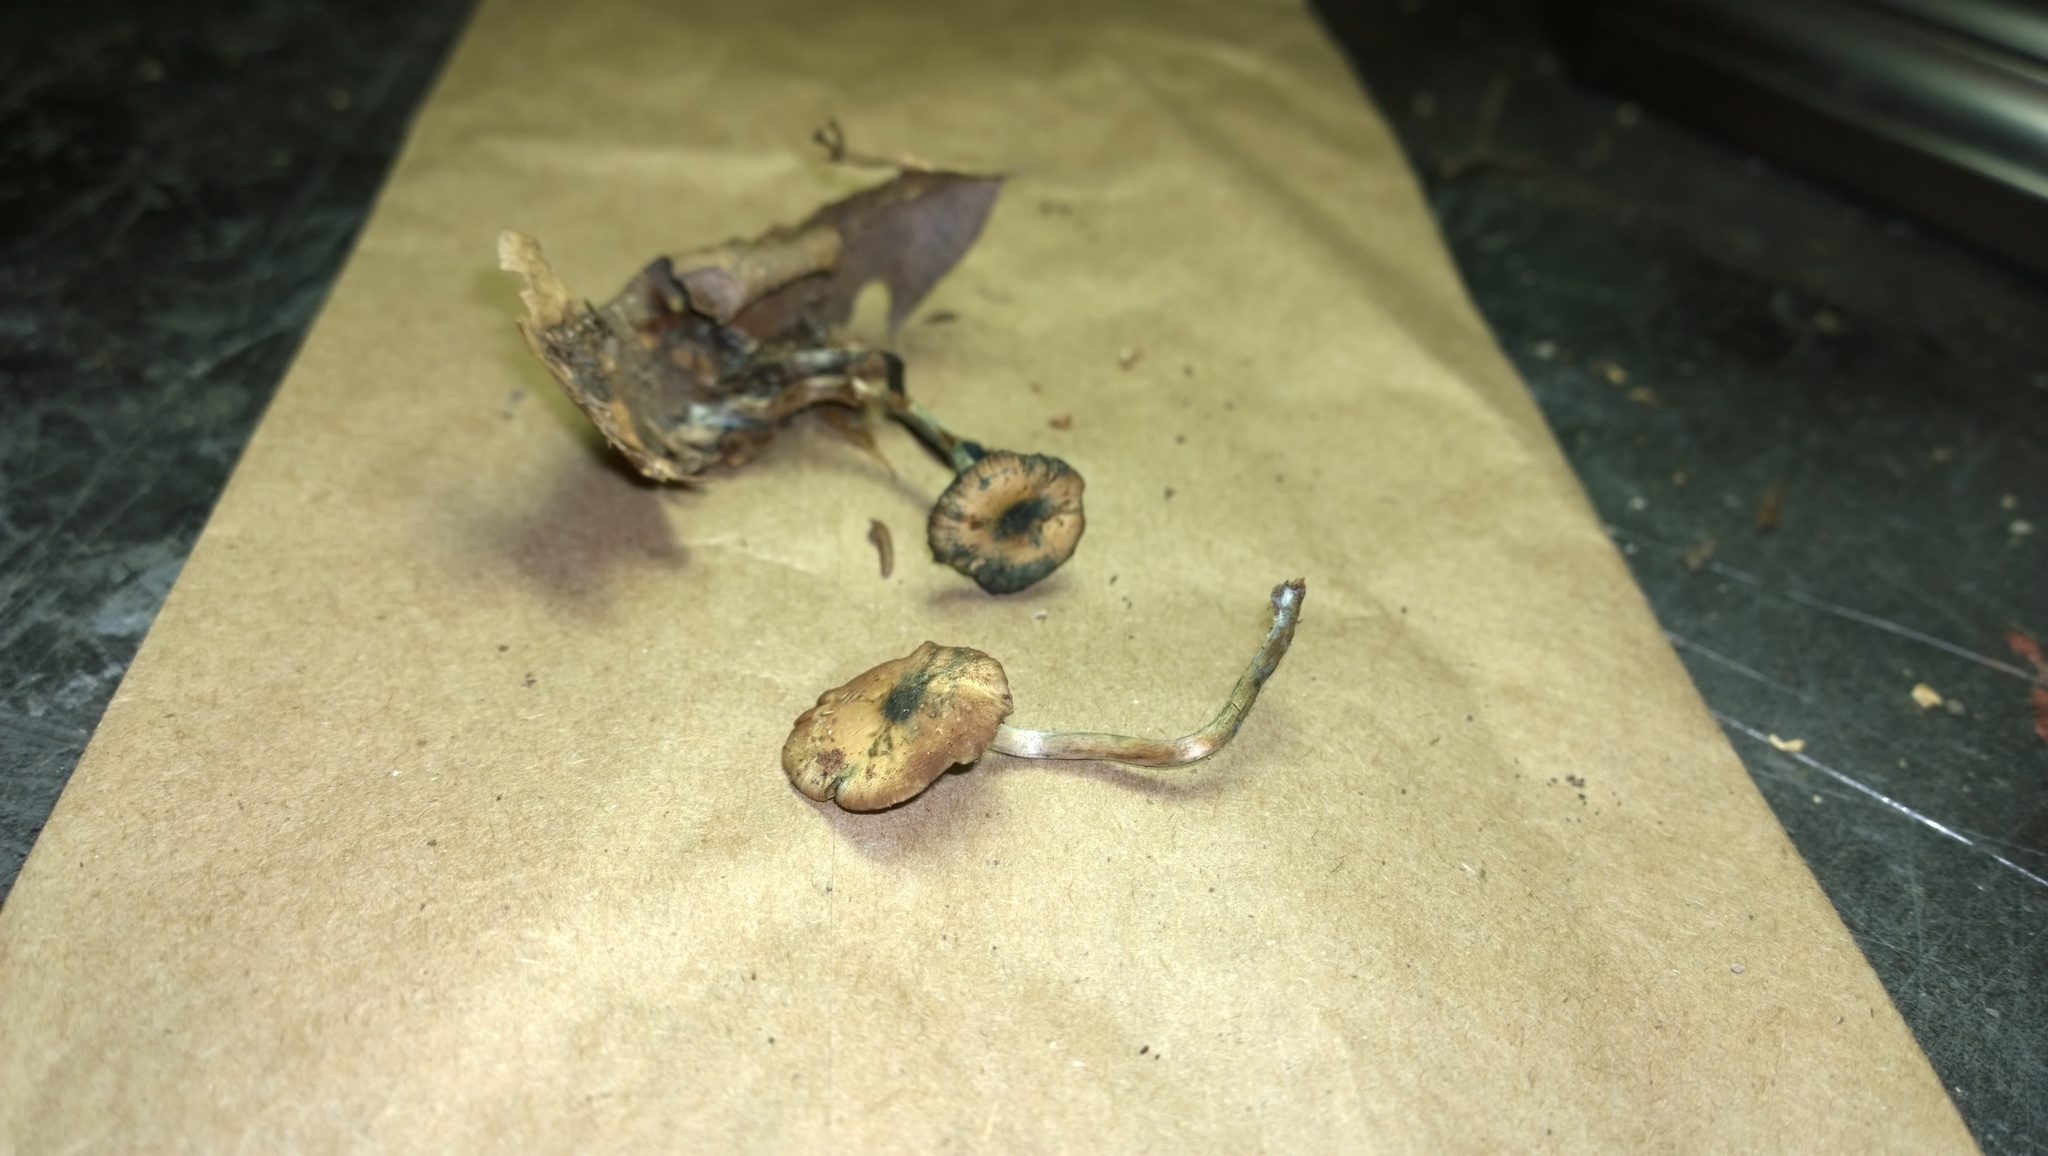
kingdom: Fungi
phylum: Basidiomycota
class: Agaricomycetes
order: Agaricales
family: Hymenogastraceae
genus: Psilocybe
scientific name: Psilocybe caerulipes
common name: Blue-foot
